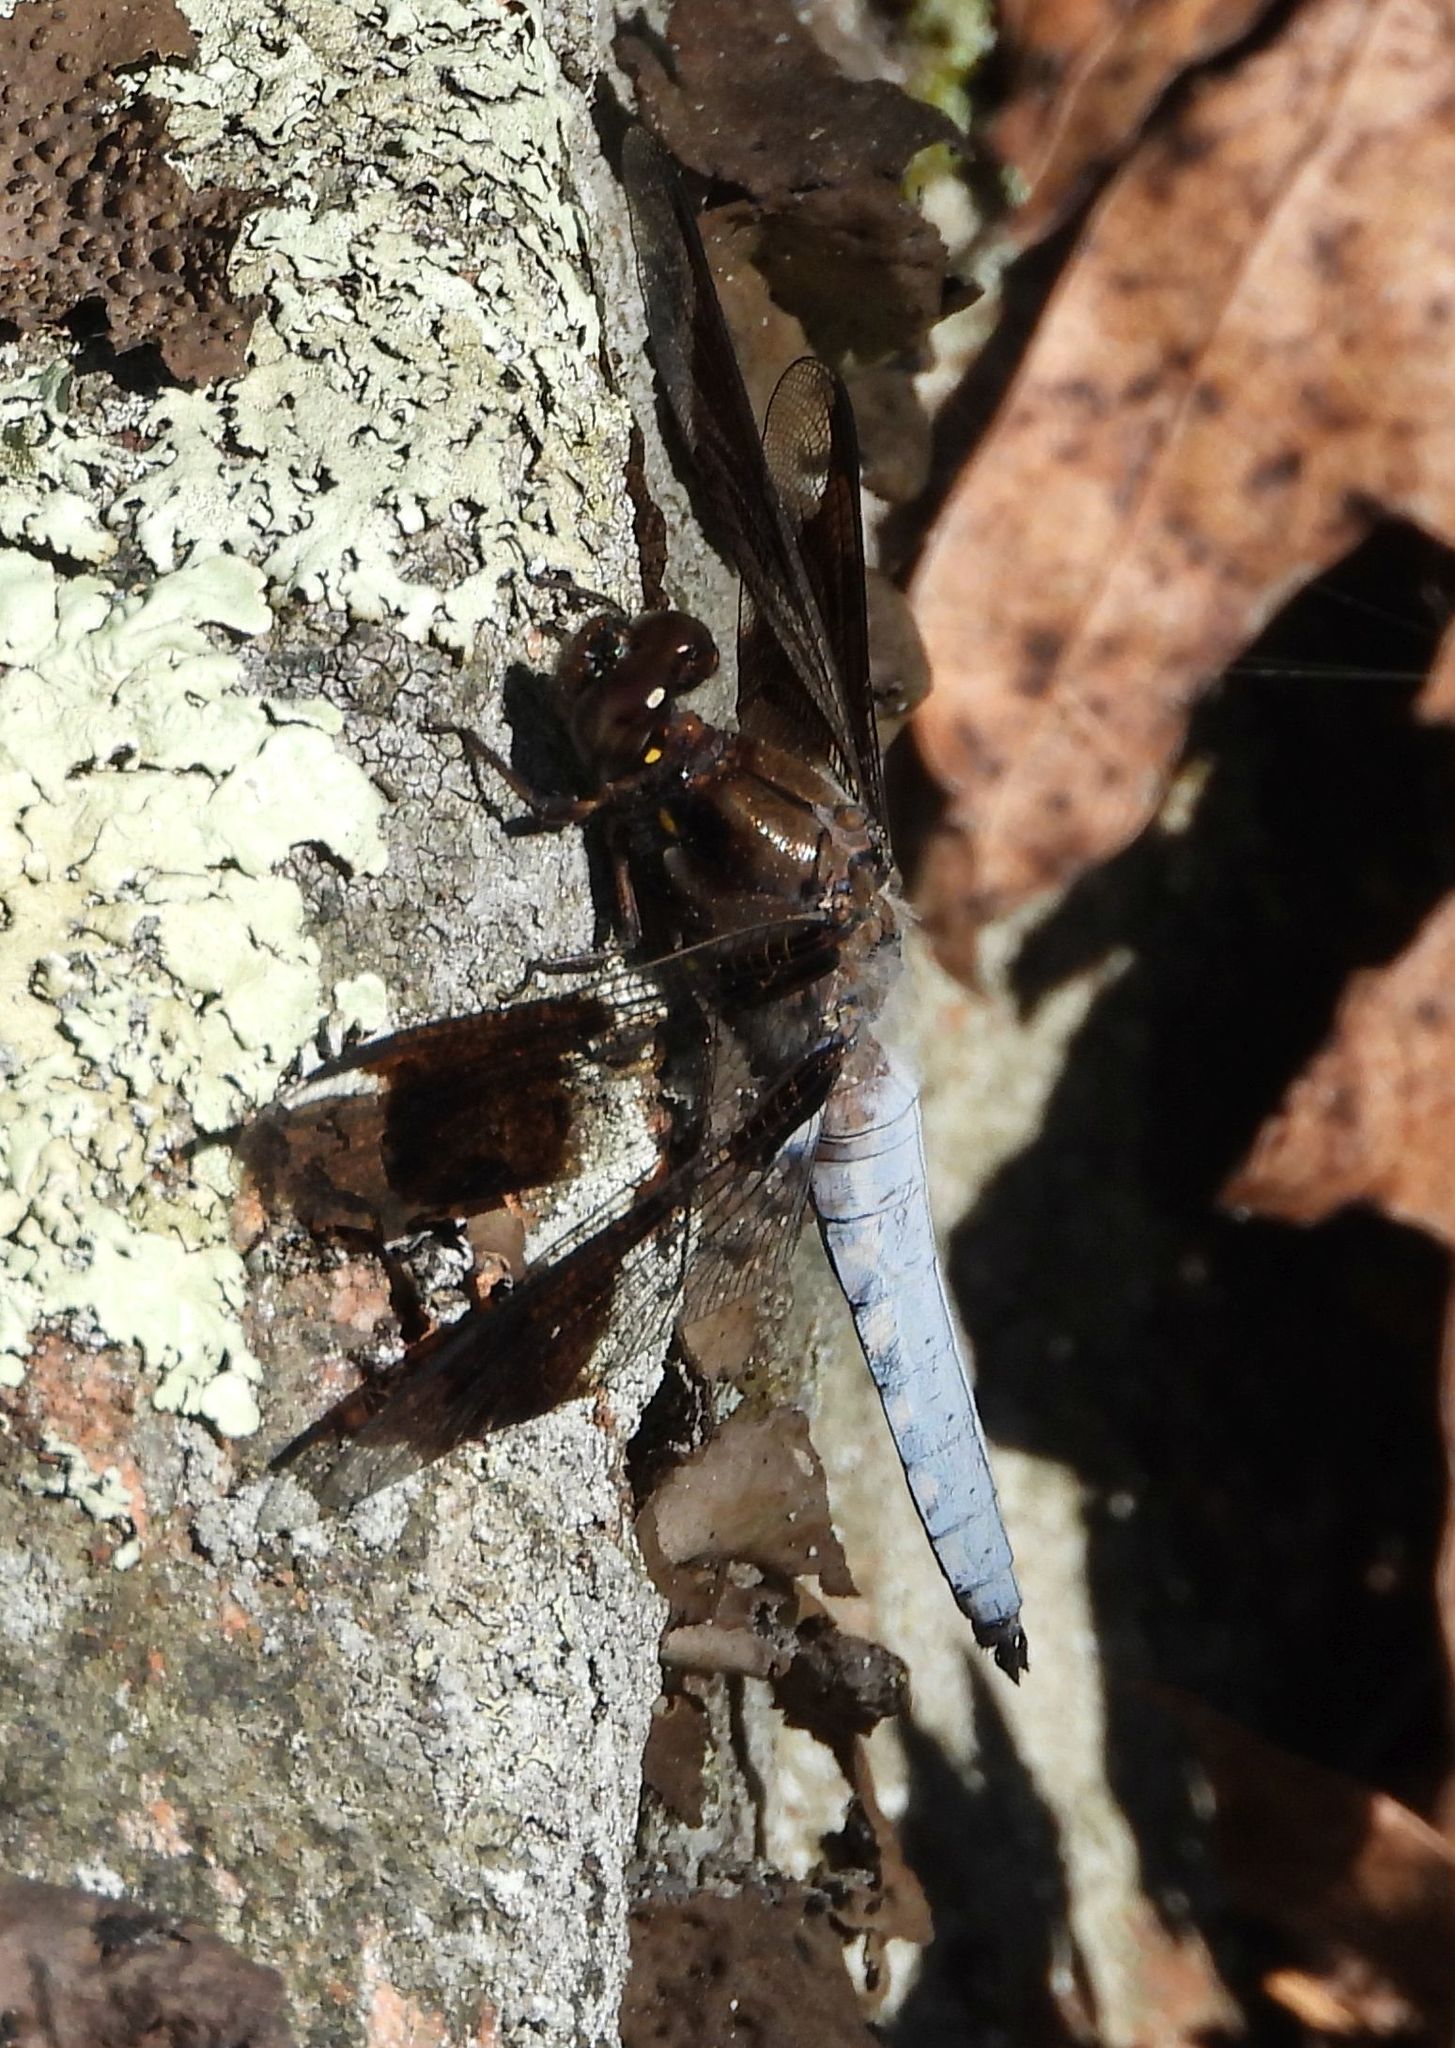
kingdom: Animalia
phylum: Arthropoda
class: Insecta
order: Odonata
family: Libellulidae
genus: Plathemis
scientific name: Plathemis lydia
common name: Common whitetail
